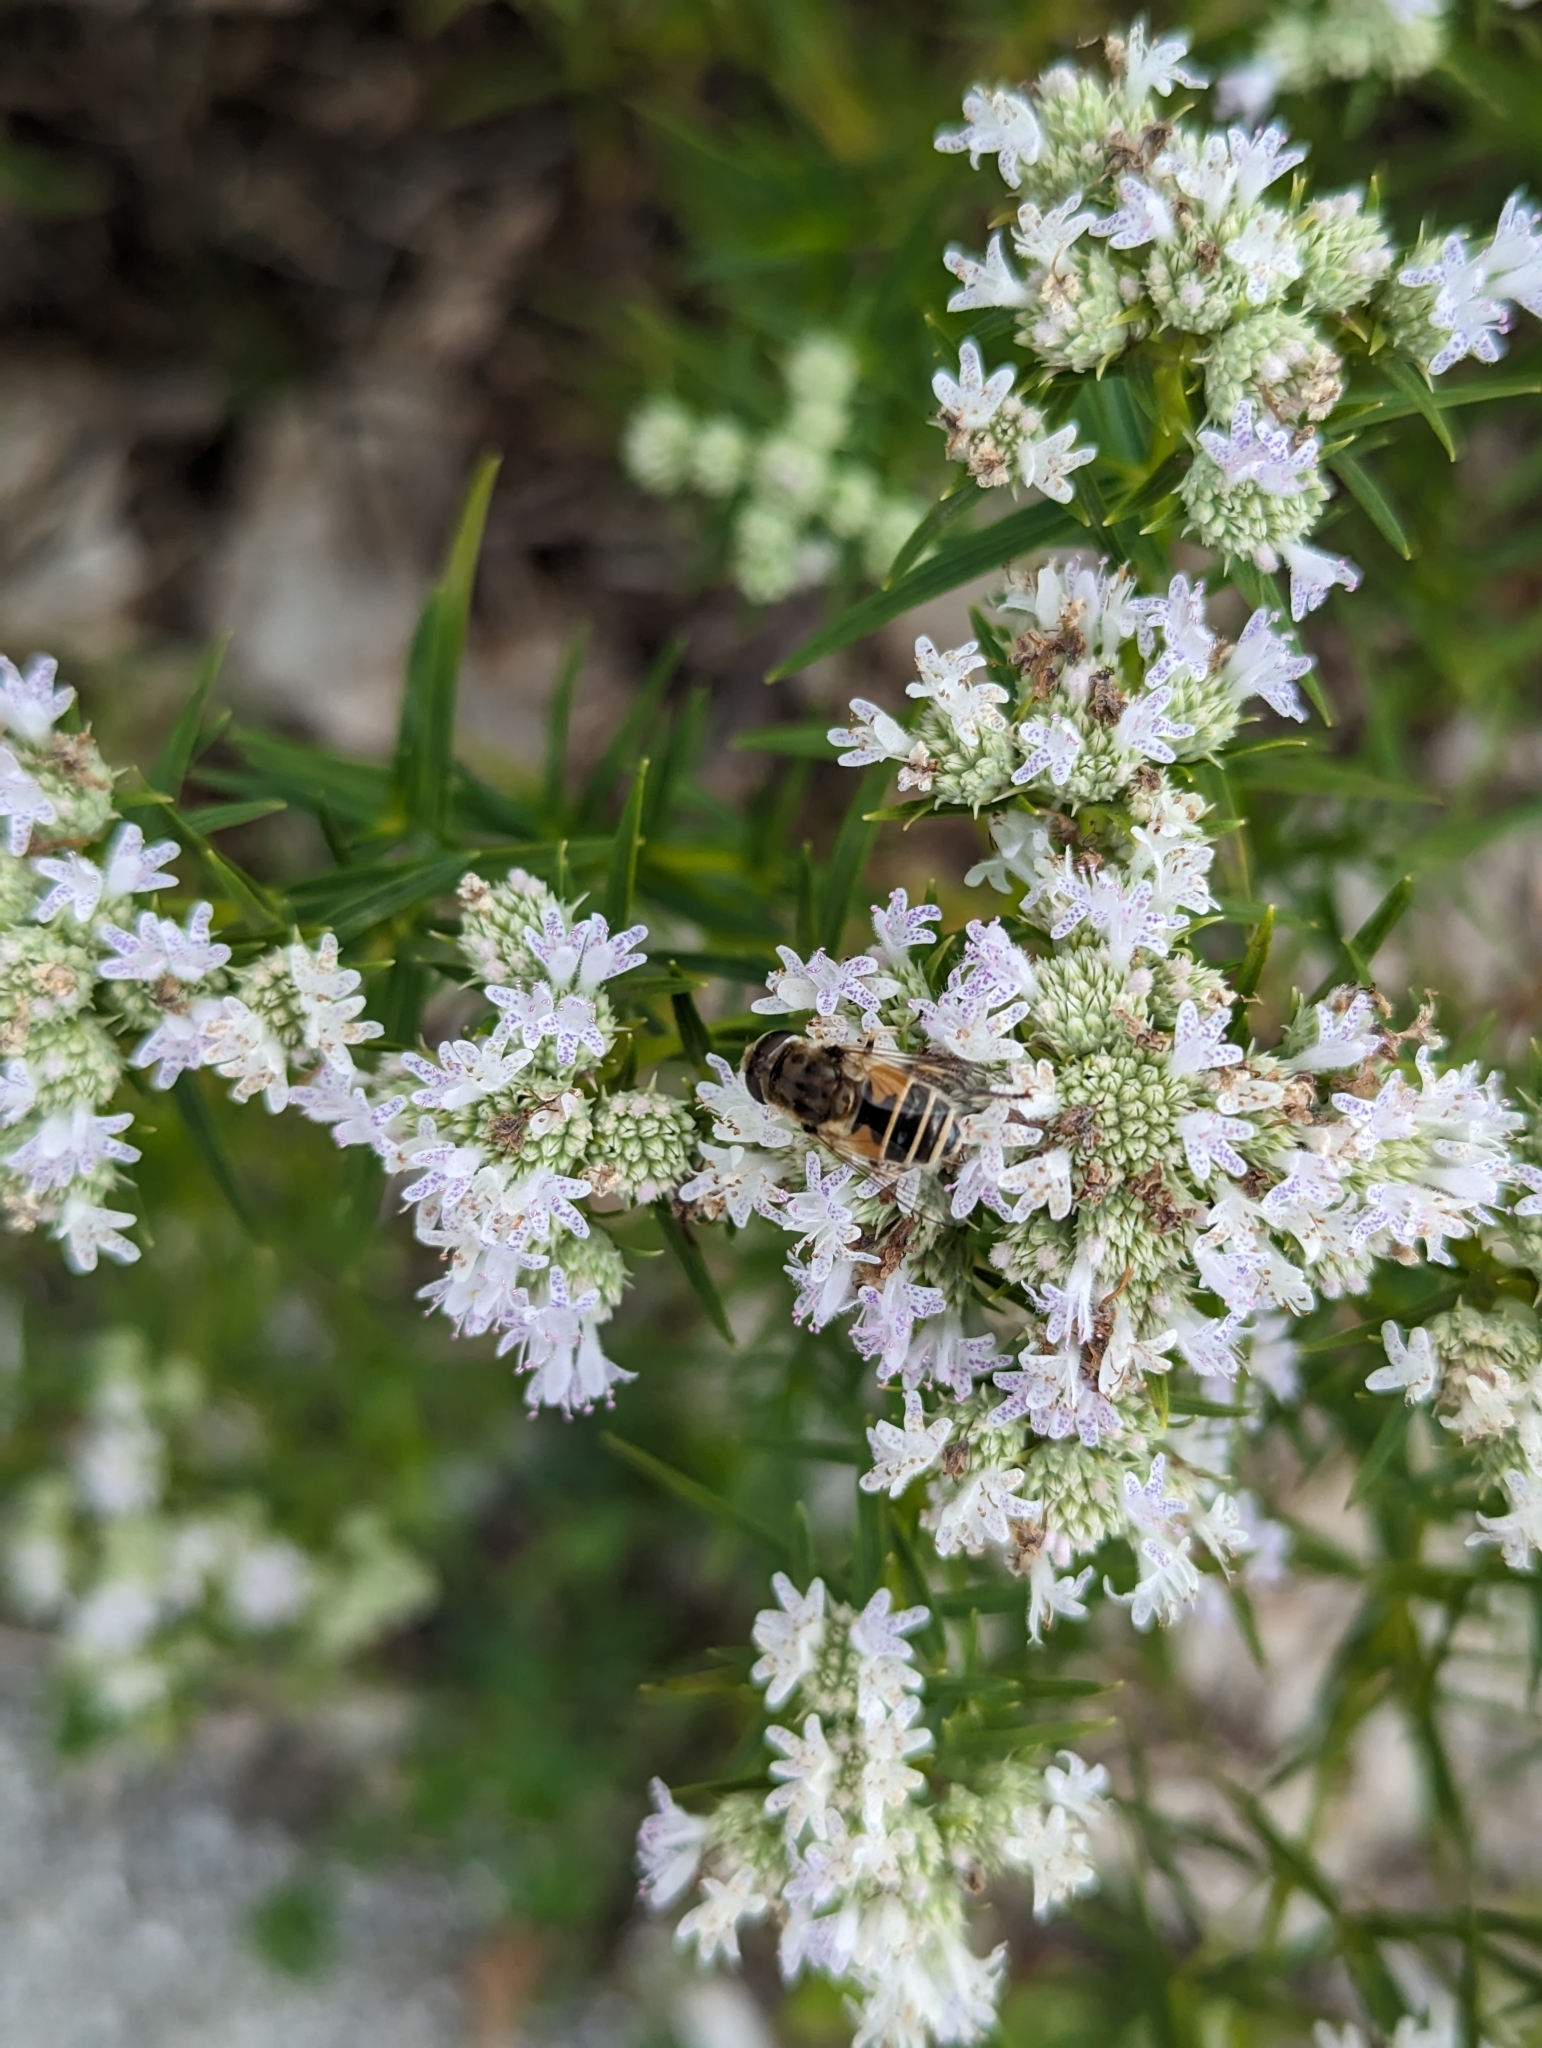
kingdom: Animalia
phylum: Arthropoda
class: Insecta
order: Diptera
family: Syrphidae
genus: Eristalis
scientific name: Eristalis arbustorum
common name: Hover fly
